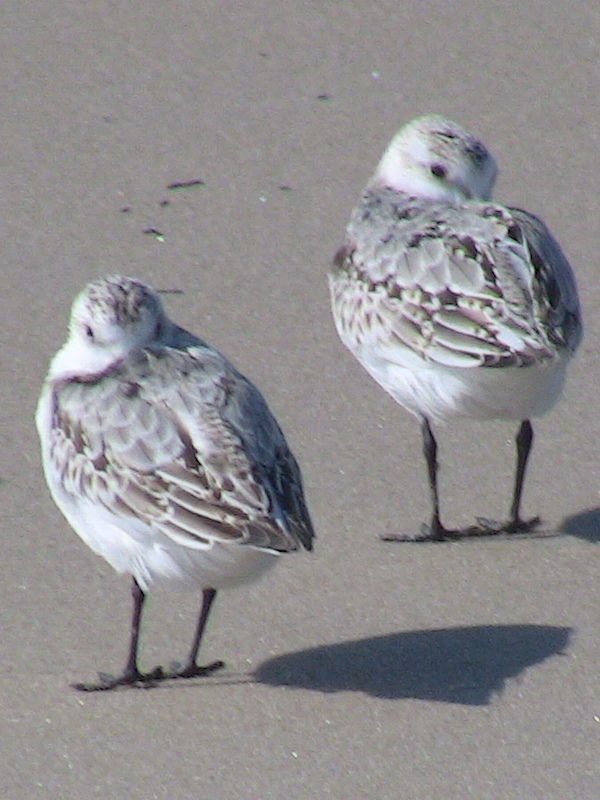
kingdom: Animalia
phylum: Chordata
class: Aves
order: Charadriiformes
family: Scolopacidae
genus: Calidris
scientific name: Calidris alba
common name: Sanderling
